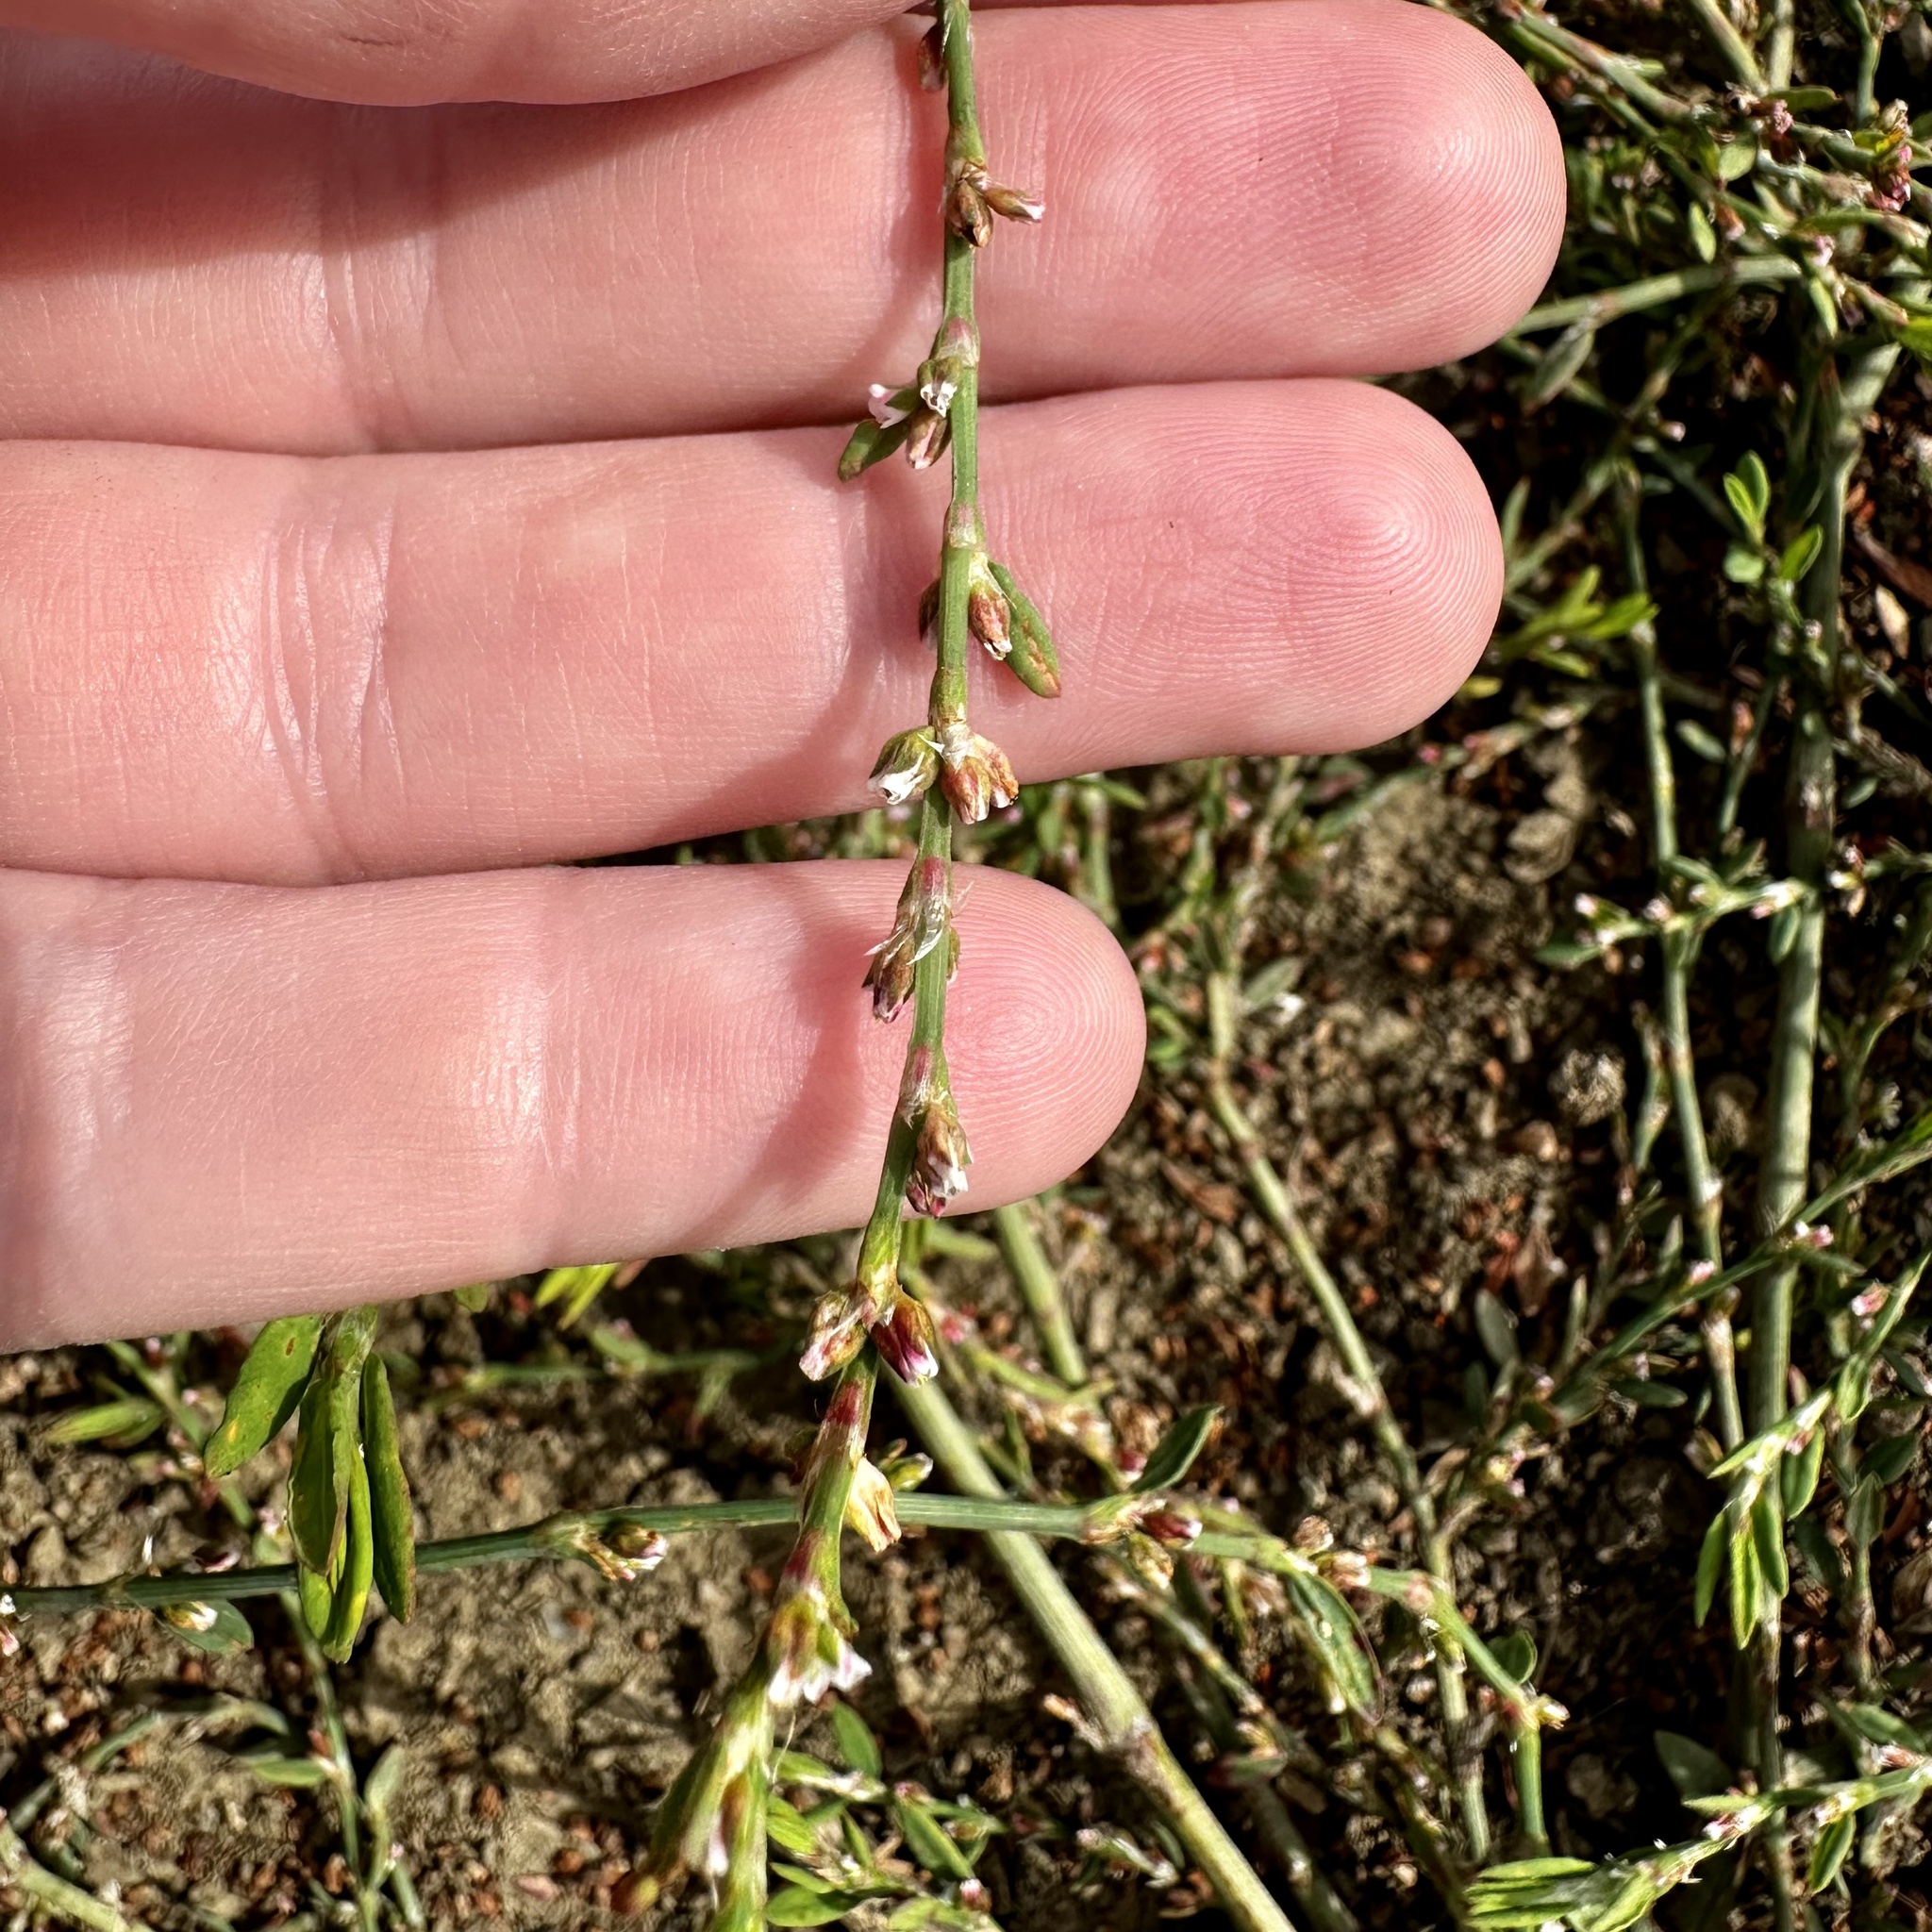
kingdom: Plantae
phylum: Tracheophyta
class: Magnoliopsida
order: Caryophyllales
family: Polygonaceae
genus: Polygonum
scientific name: Polygonum aviculare
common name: Prostrate knotweed
